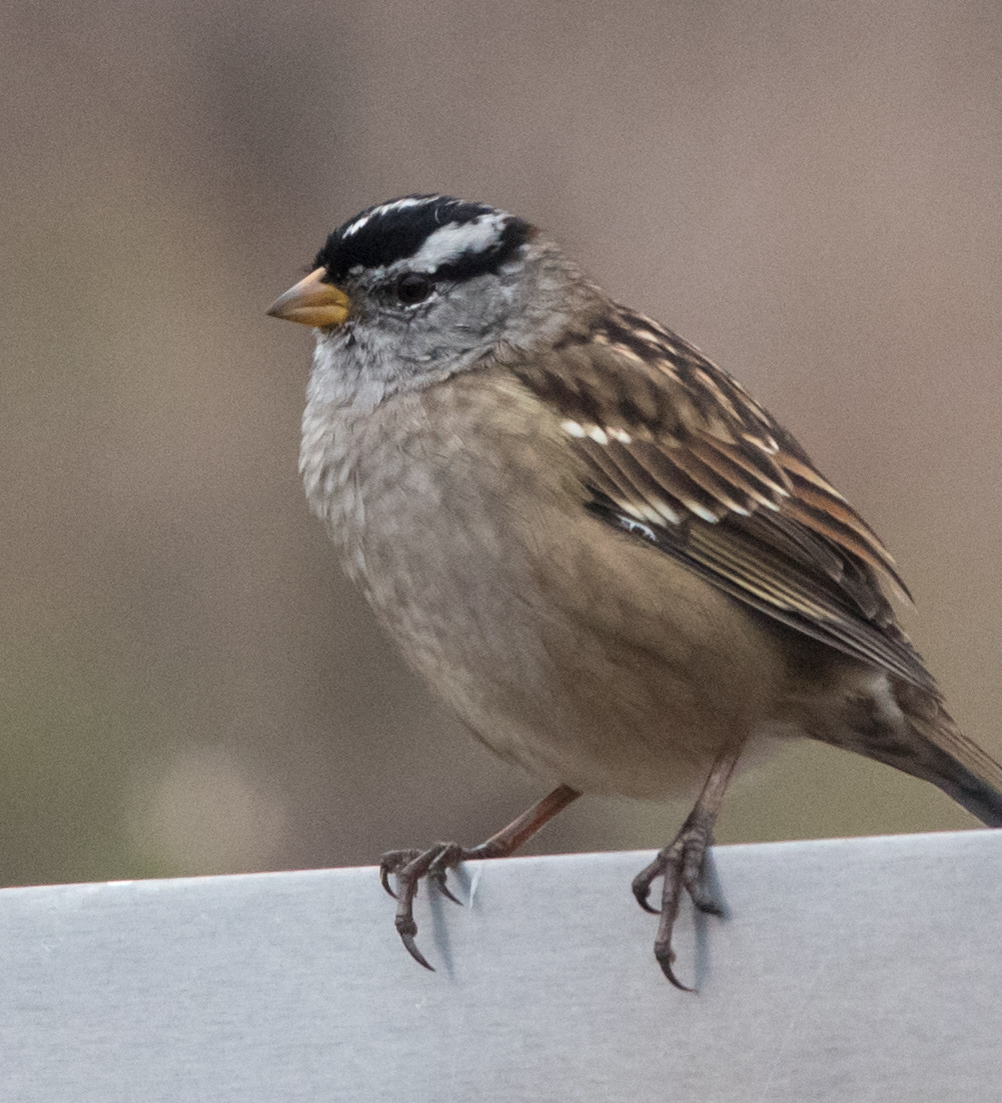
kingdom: Animalia
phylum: Chordata
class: Aves
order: Passeriformes
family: Passerellidae
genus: Zonotrichia
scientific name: Zonotrichia leucophrys
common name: White-crowned sparrow
